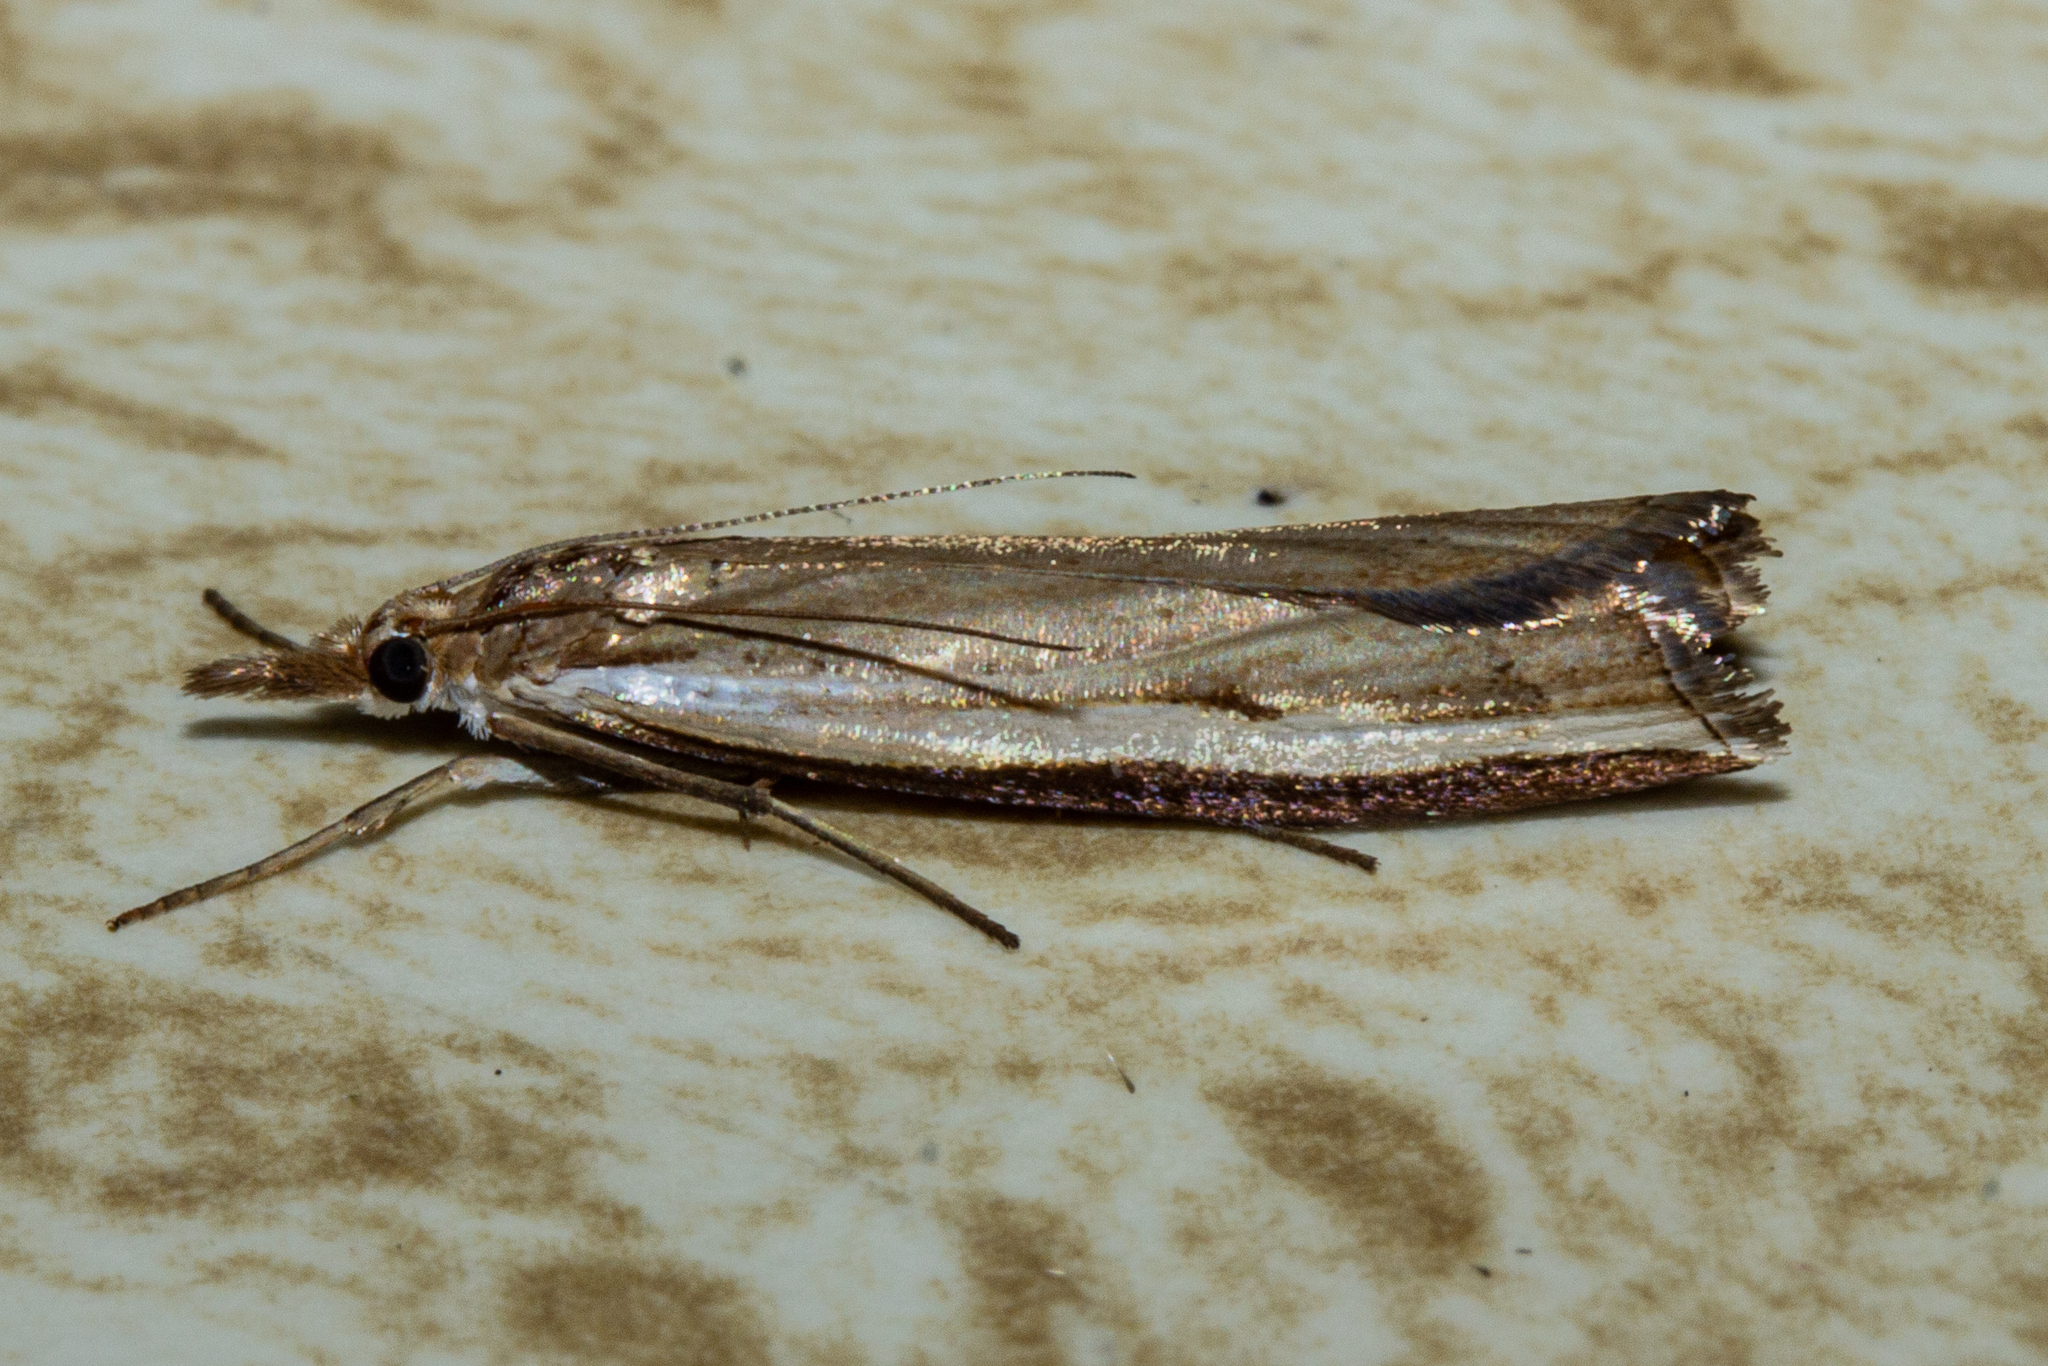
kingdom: Animalia
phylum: Arthropoda
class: Insecta
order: Lepidoptera
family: Crambidae
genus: Orocrambus
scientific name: Orocrambus flexuosellus
